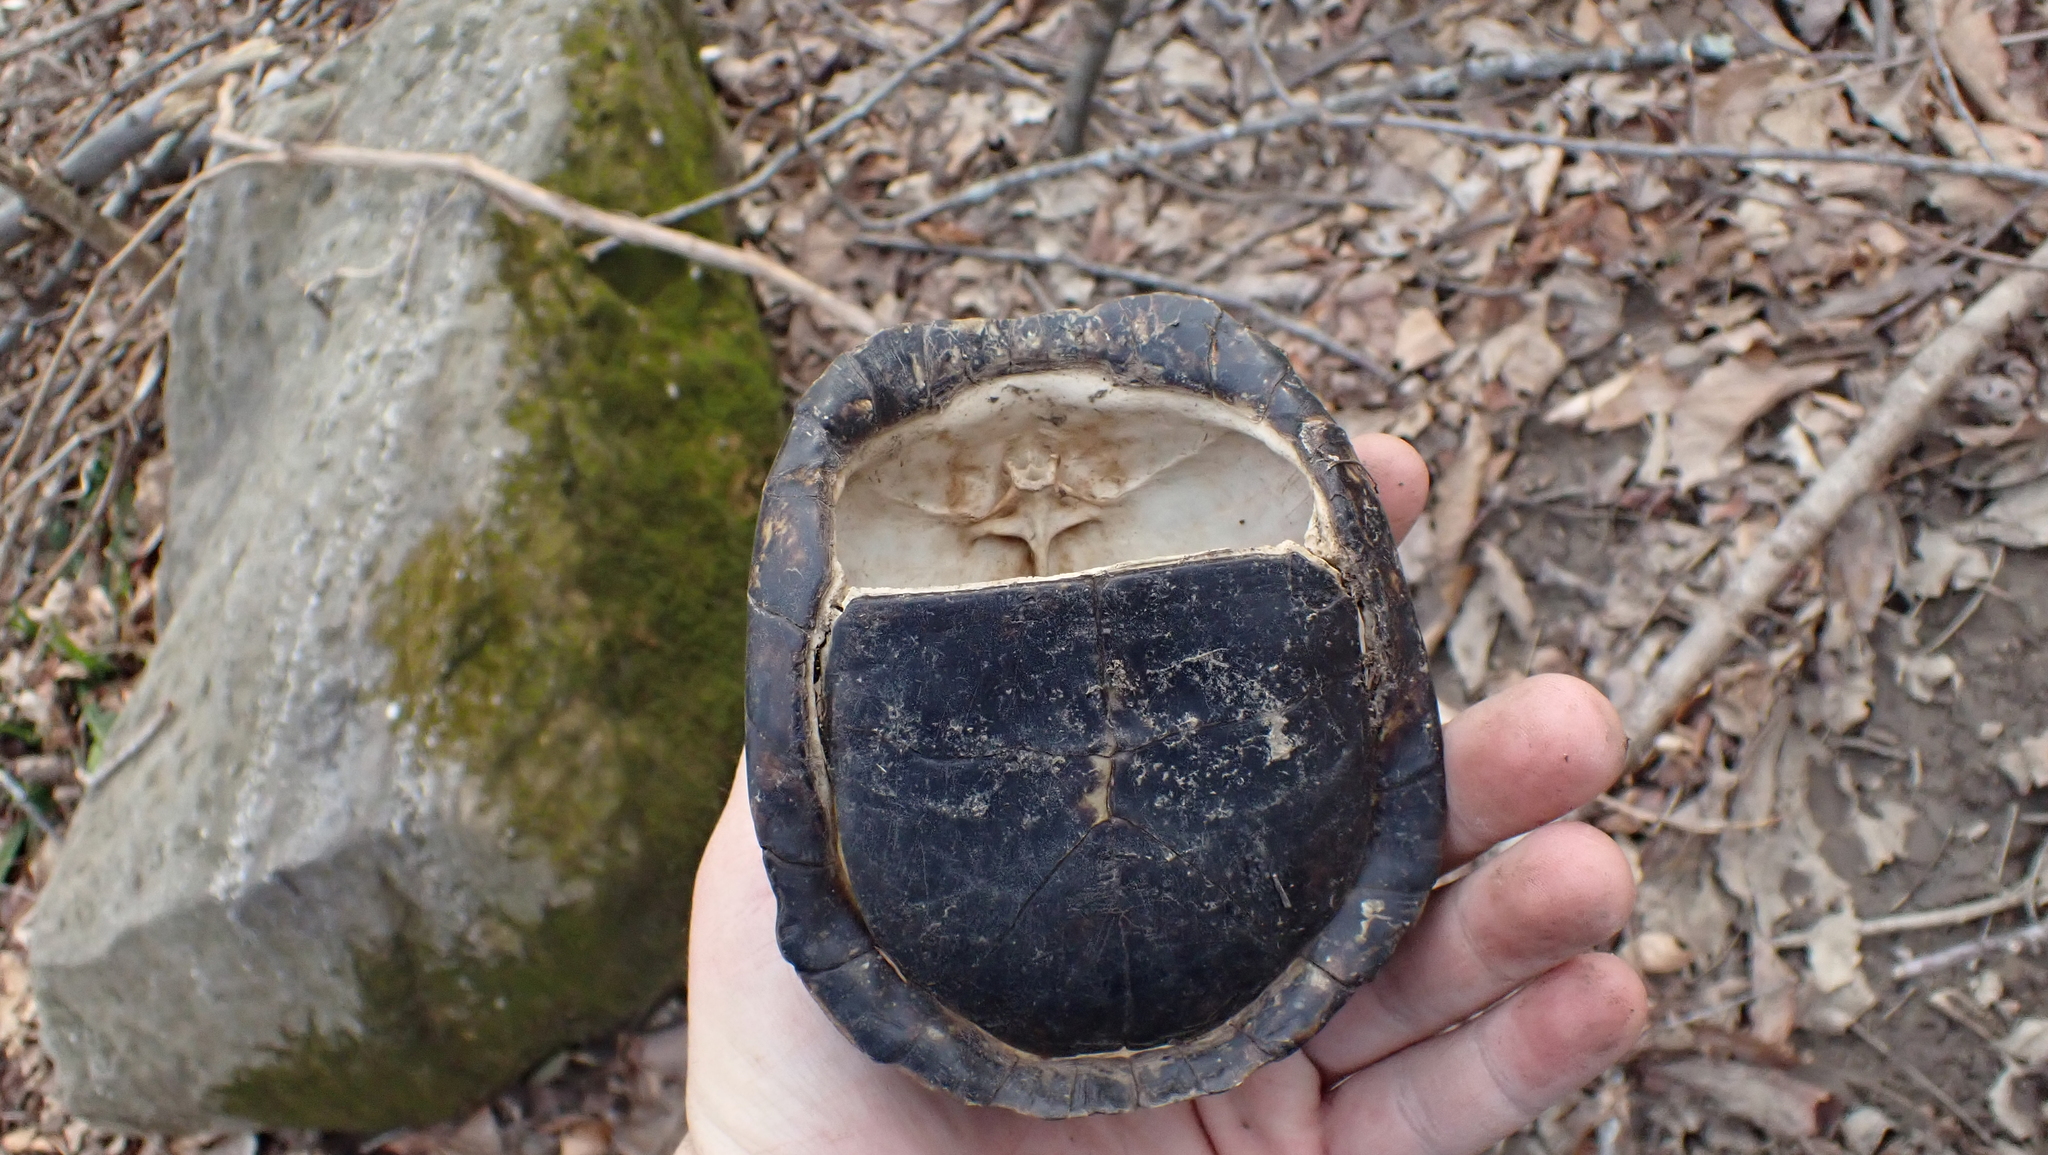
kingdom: Animalia
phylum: Chordata
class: Testudines
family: Emydidae
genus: Terrapene
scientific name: Terrapene carolina
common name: Common box turtle
